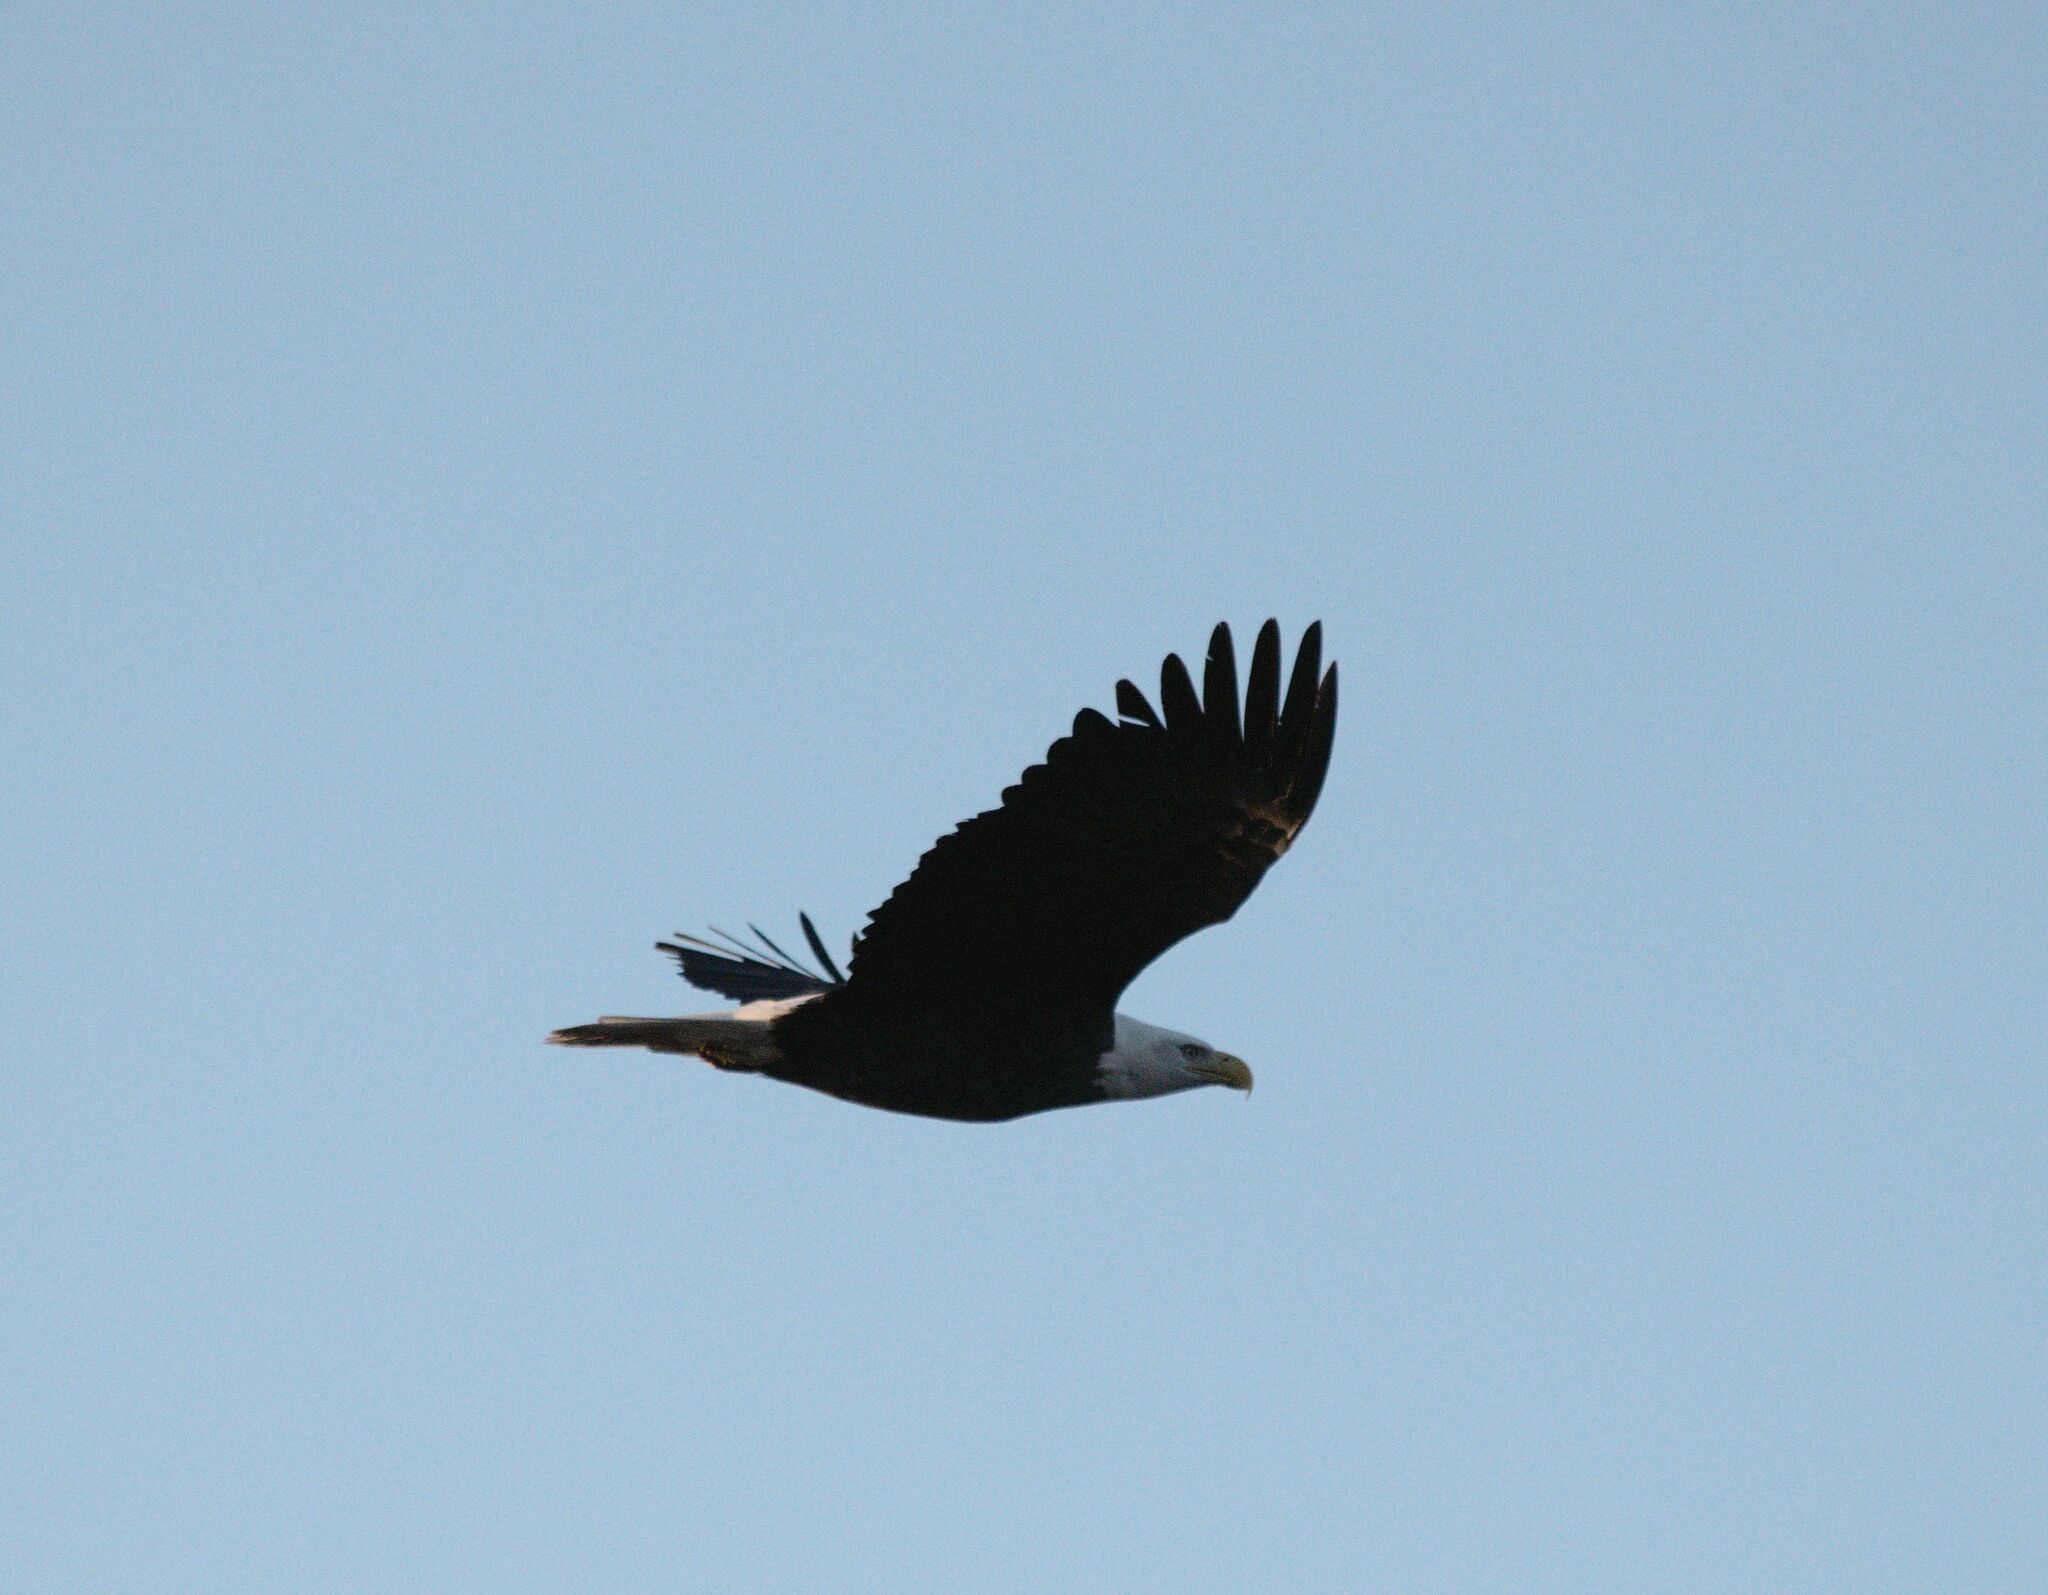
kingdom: Animalia
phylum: Chordata
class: Aves
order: Accipitriformes
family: Accipitridae
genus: Haliaeetus
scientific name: Haliaeetus leucocephalus
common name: Bald eagle
